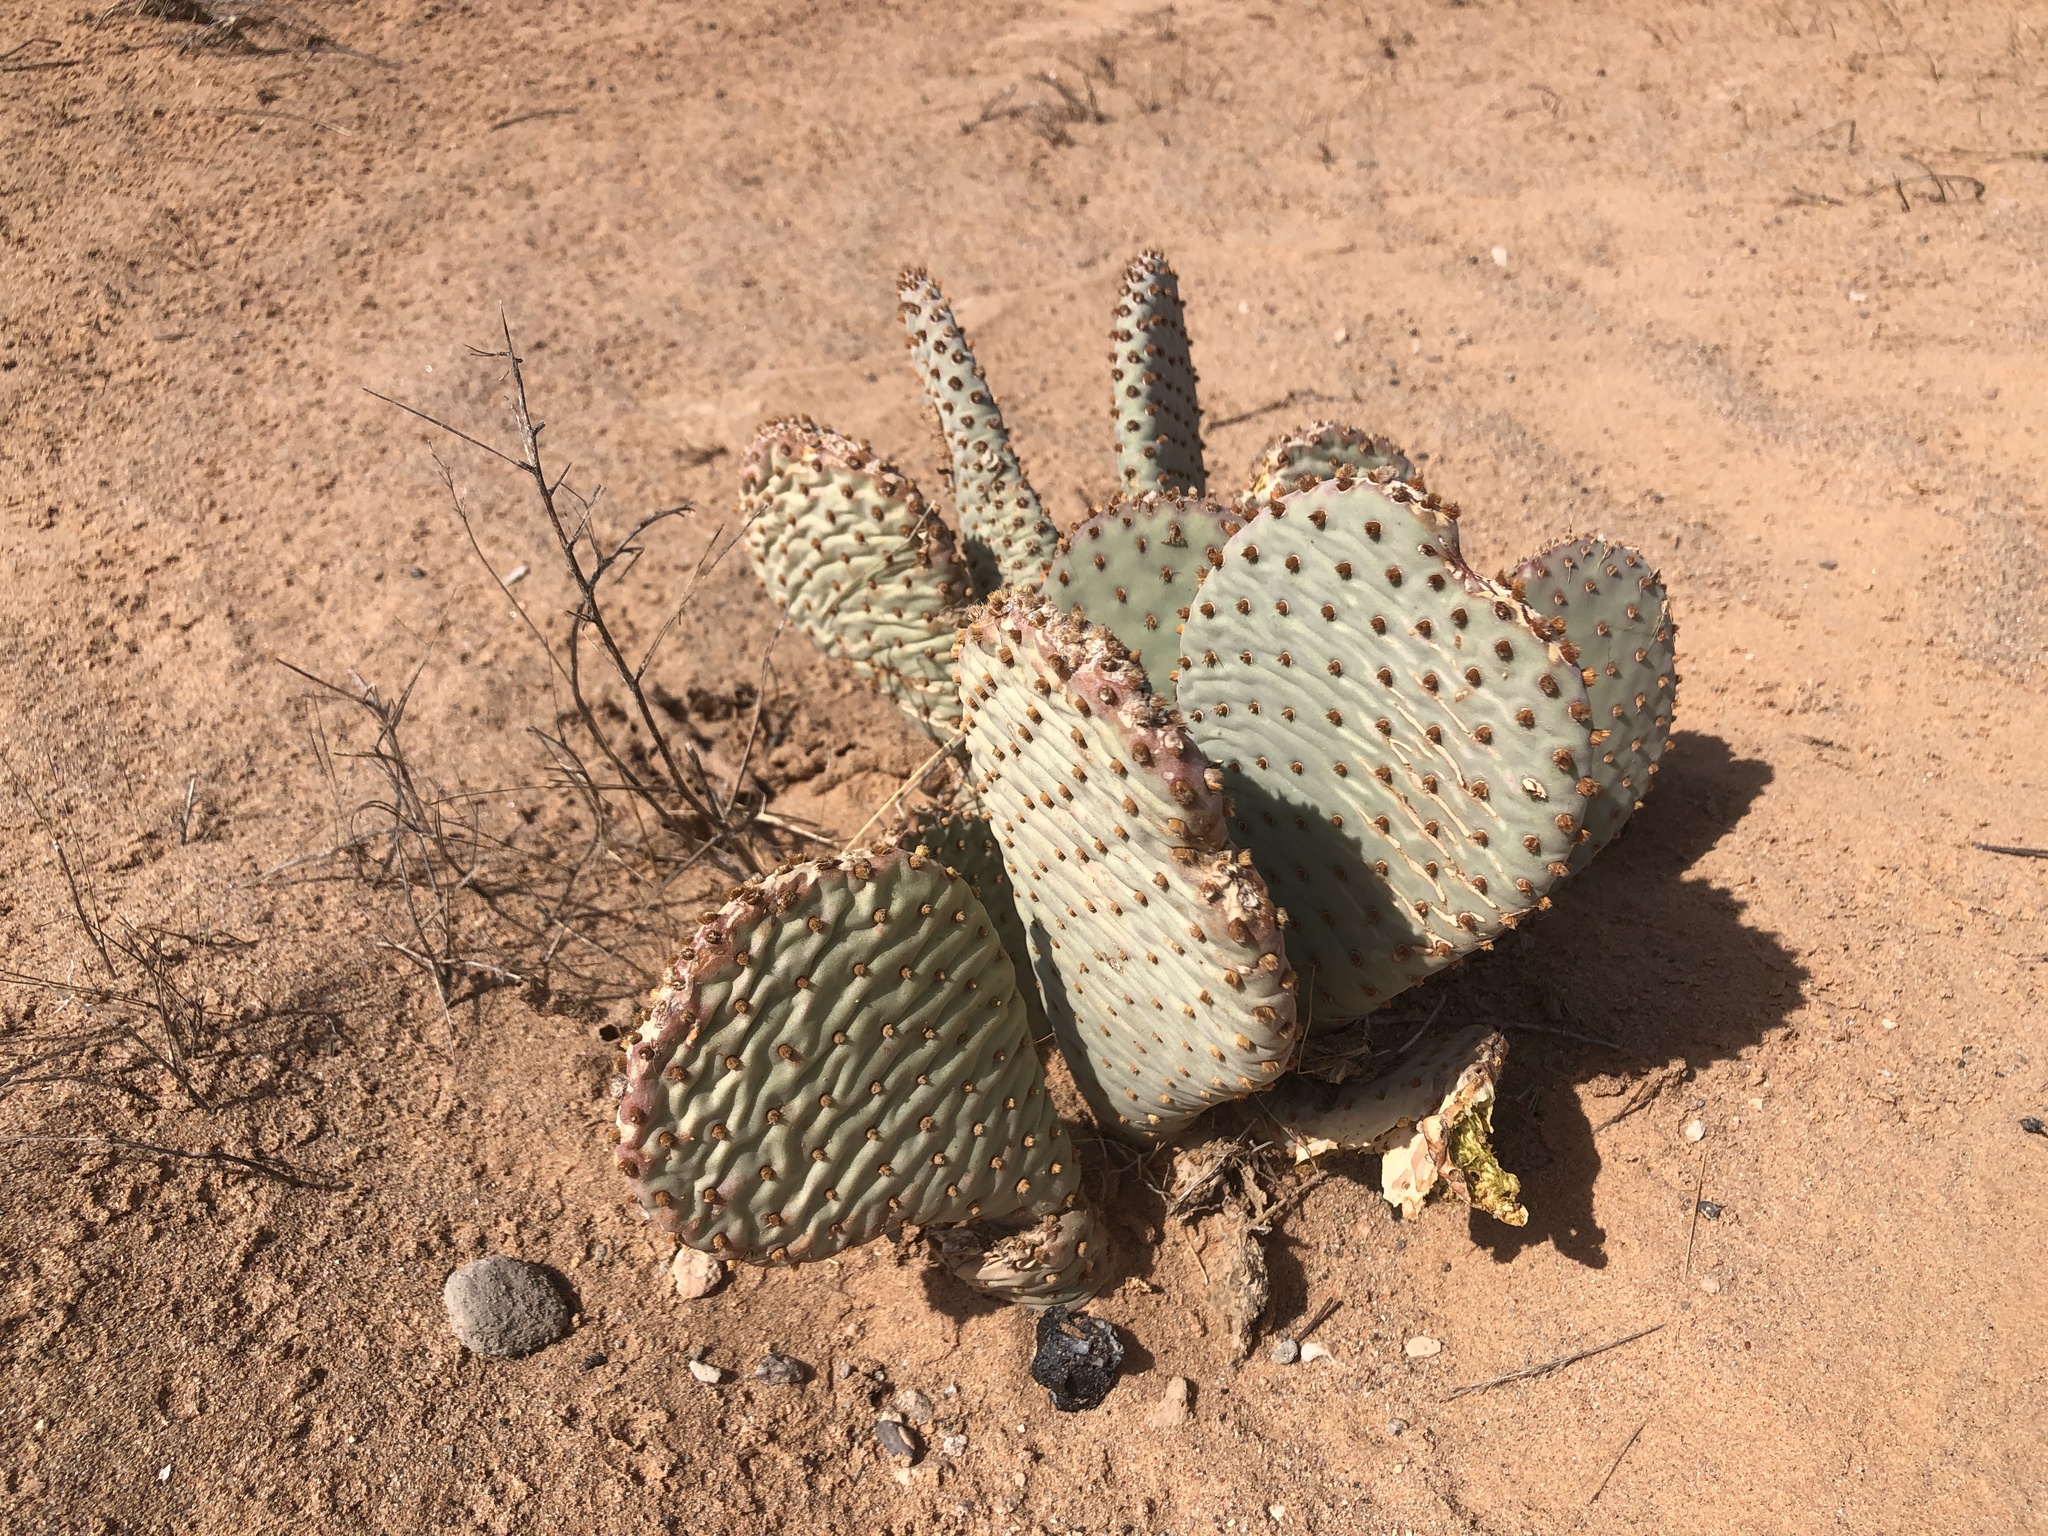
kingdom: Plantae
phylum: Tracheophyta
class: Magnoliopsida
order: Caryophyllales
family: Cactaceae
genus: Opuntia
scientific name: Opuntia basilaris
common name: Beavertail prickly-pear
